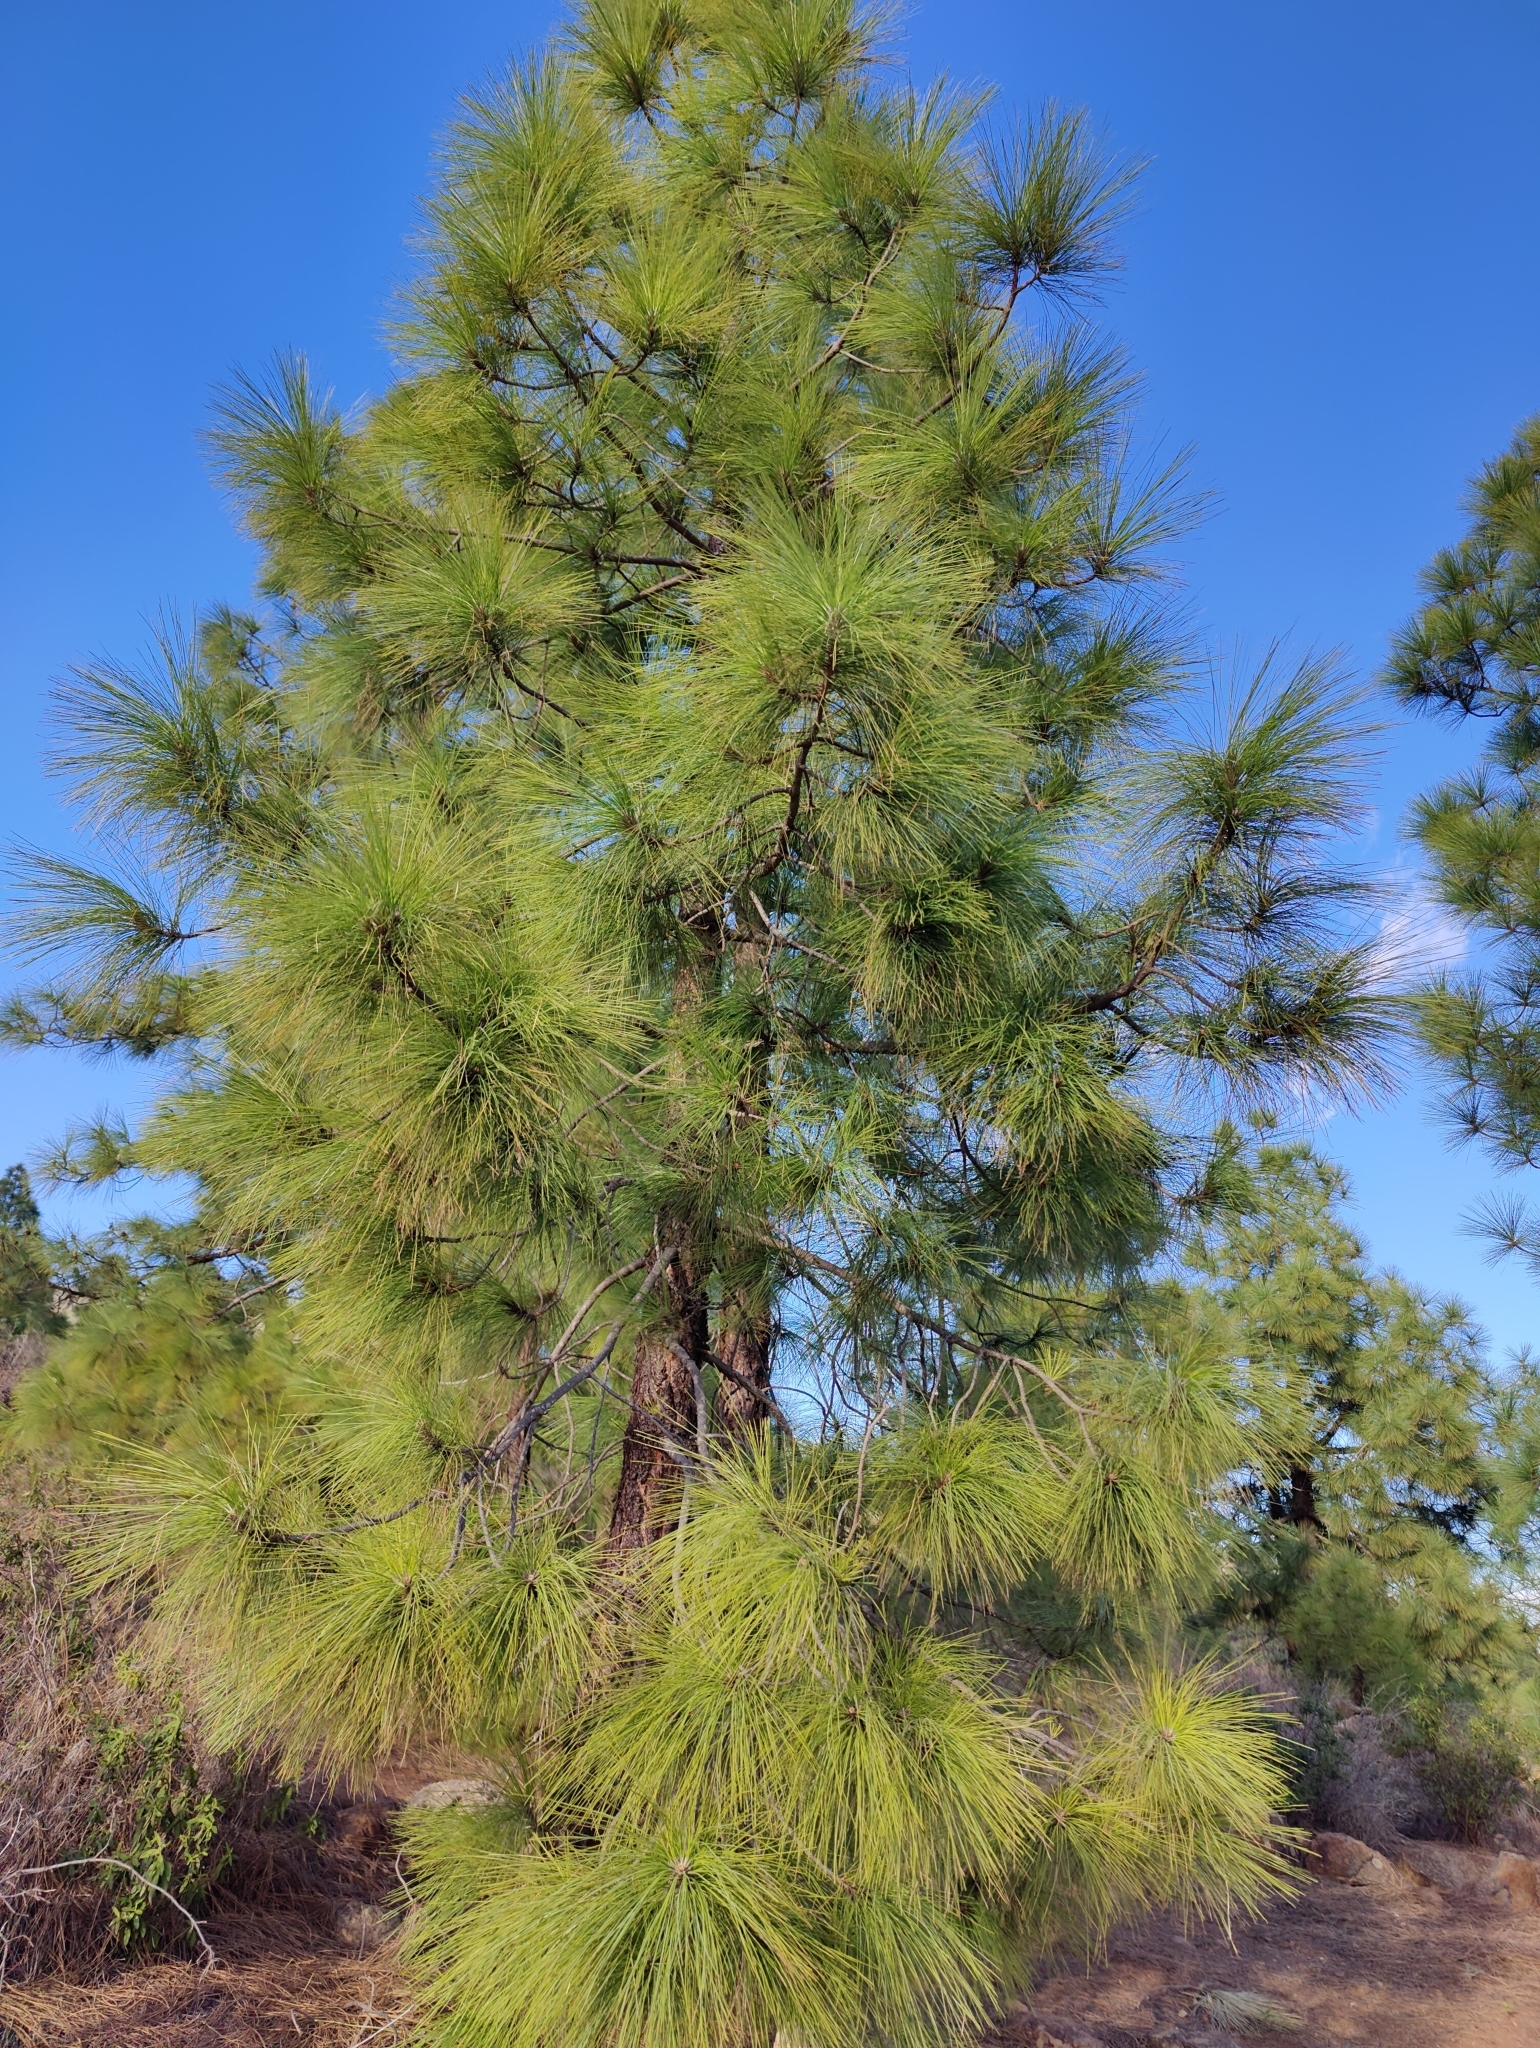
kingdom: Plantae
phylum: Tracheophyta
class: Pinopsida
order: Pinales
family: Pinaceae
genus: Pinus
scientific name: Pinus canariensis
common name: Canary islands pine
